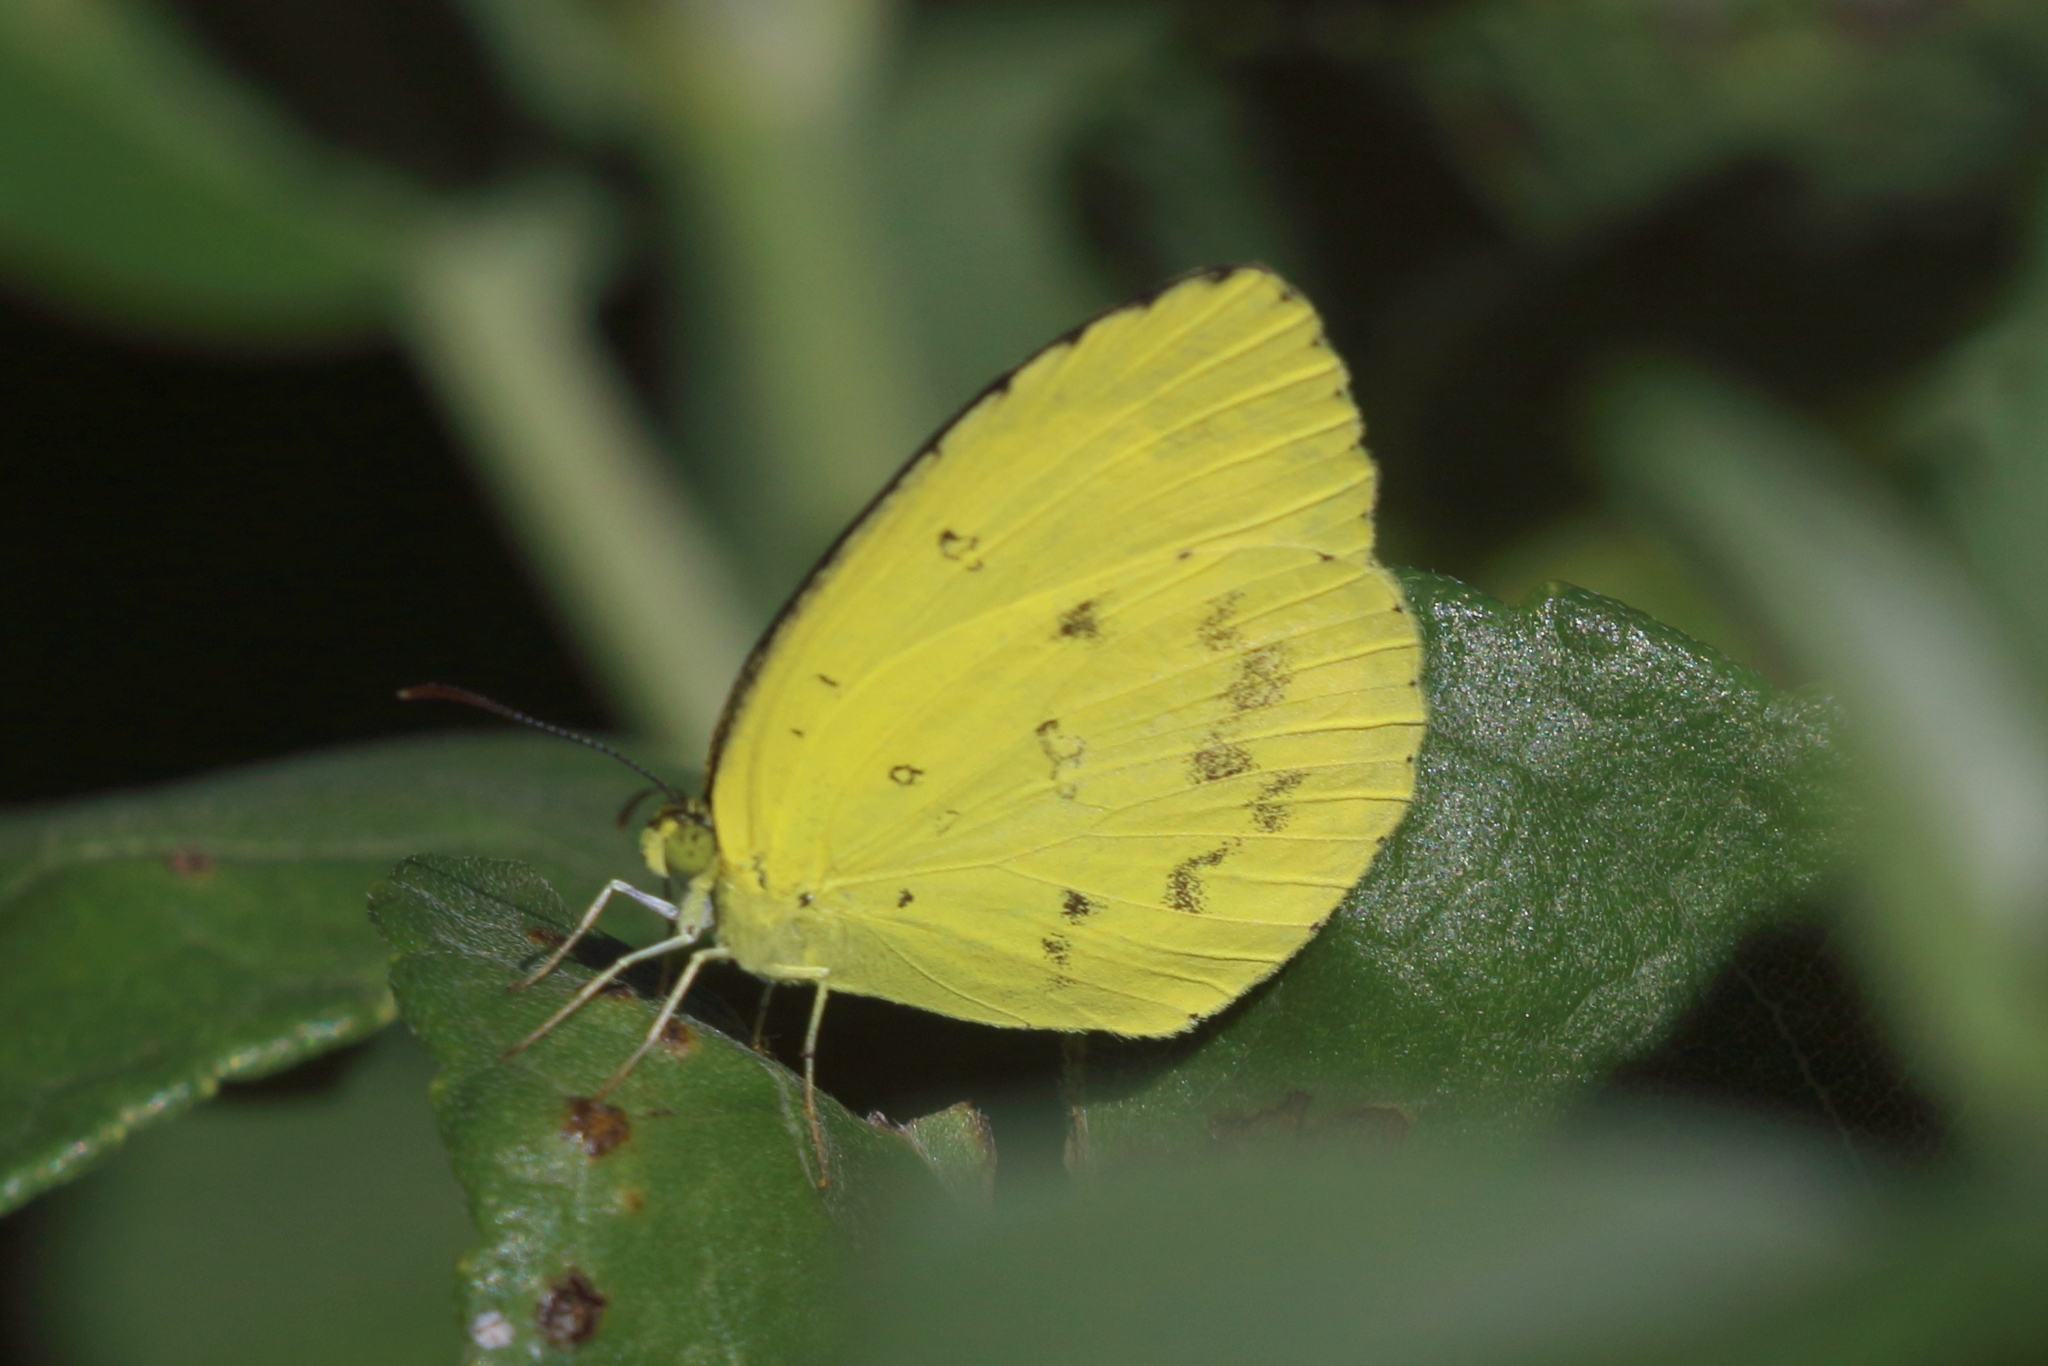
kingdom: Animalia
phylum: Arthropoda
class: Insecta
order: Lepidoptera
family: Pieridae
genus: Eurema
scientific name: Eurema hecabe
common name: Pale grass yellow
